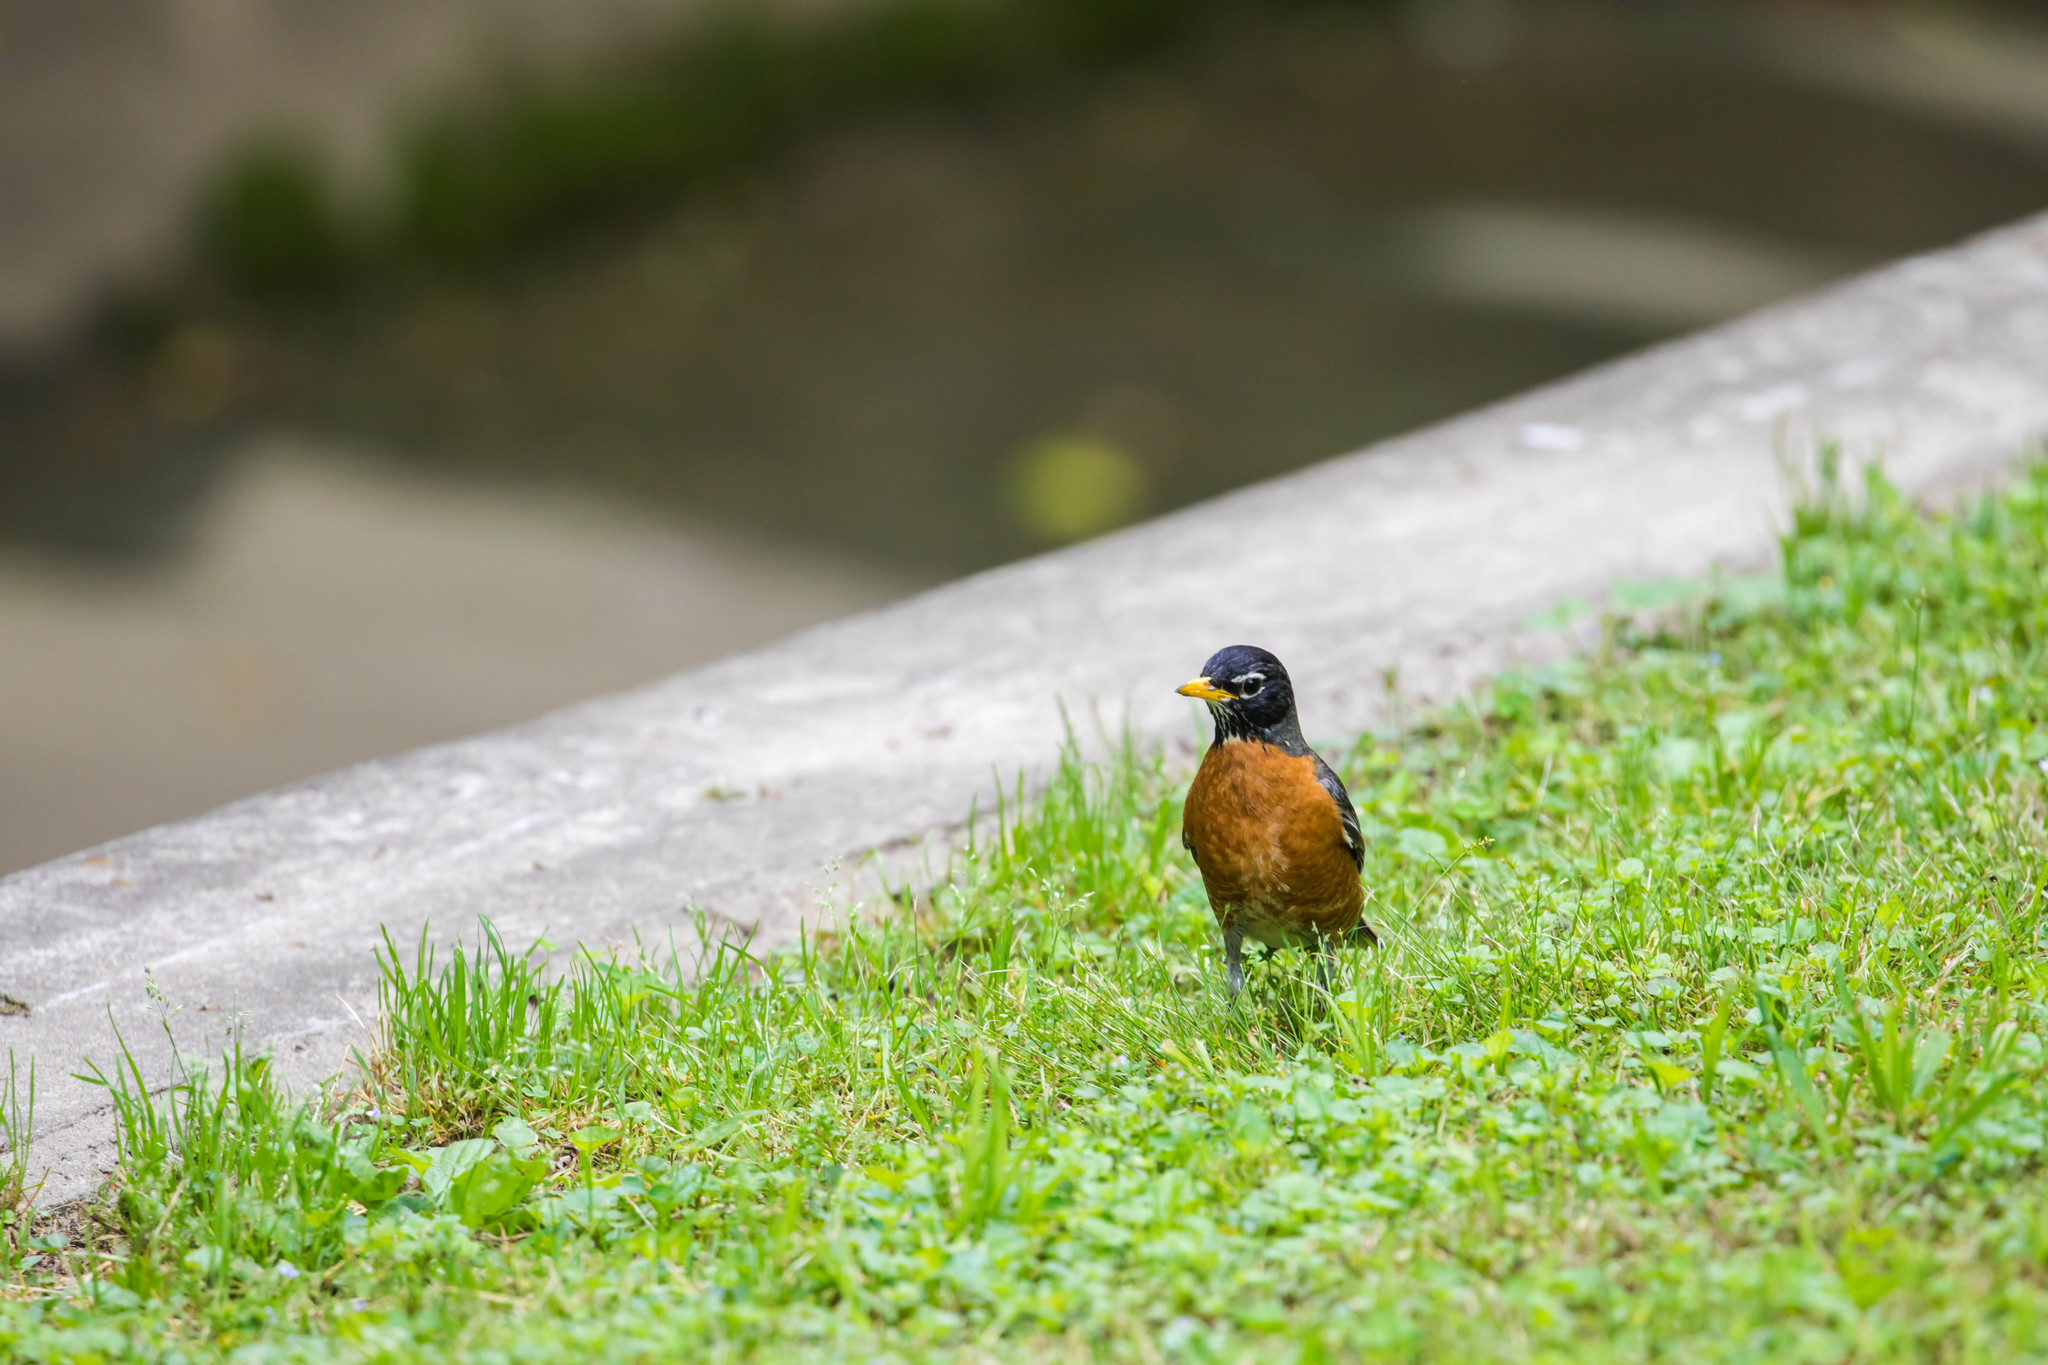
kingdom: Animalia
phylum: Chordata
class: Aves
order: Passeriformes
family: Turdidae
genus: Turdus
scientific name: Turdus migratorius
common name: American robin
